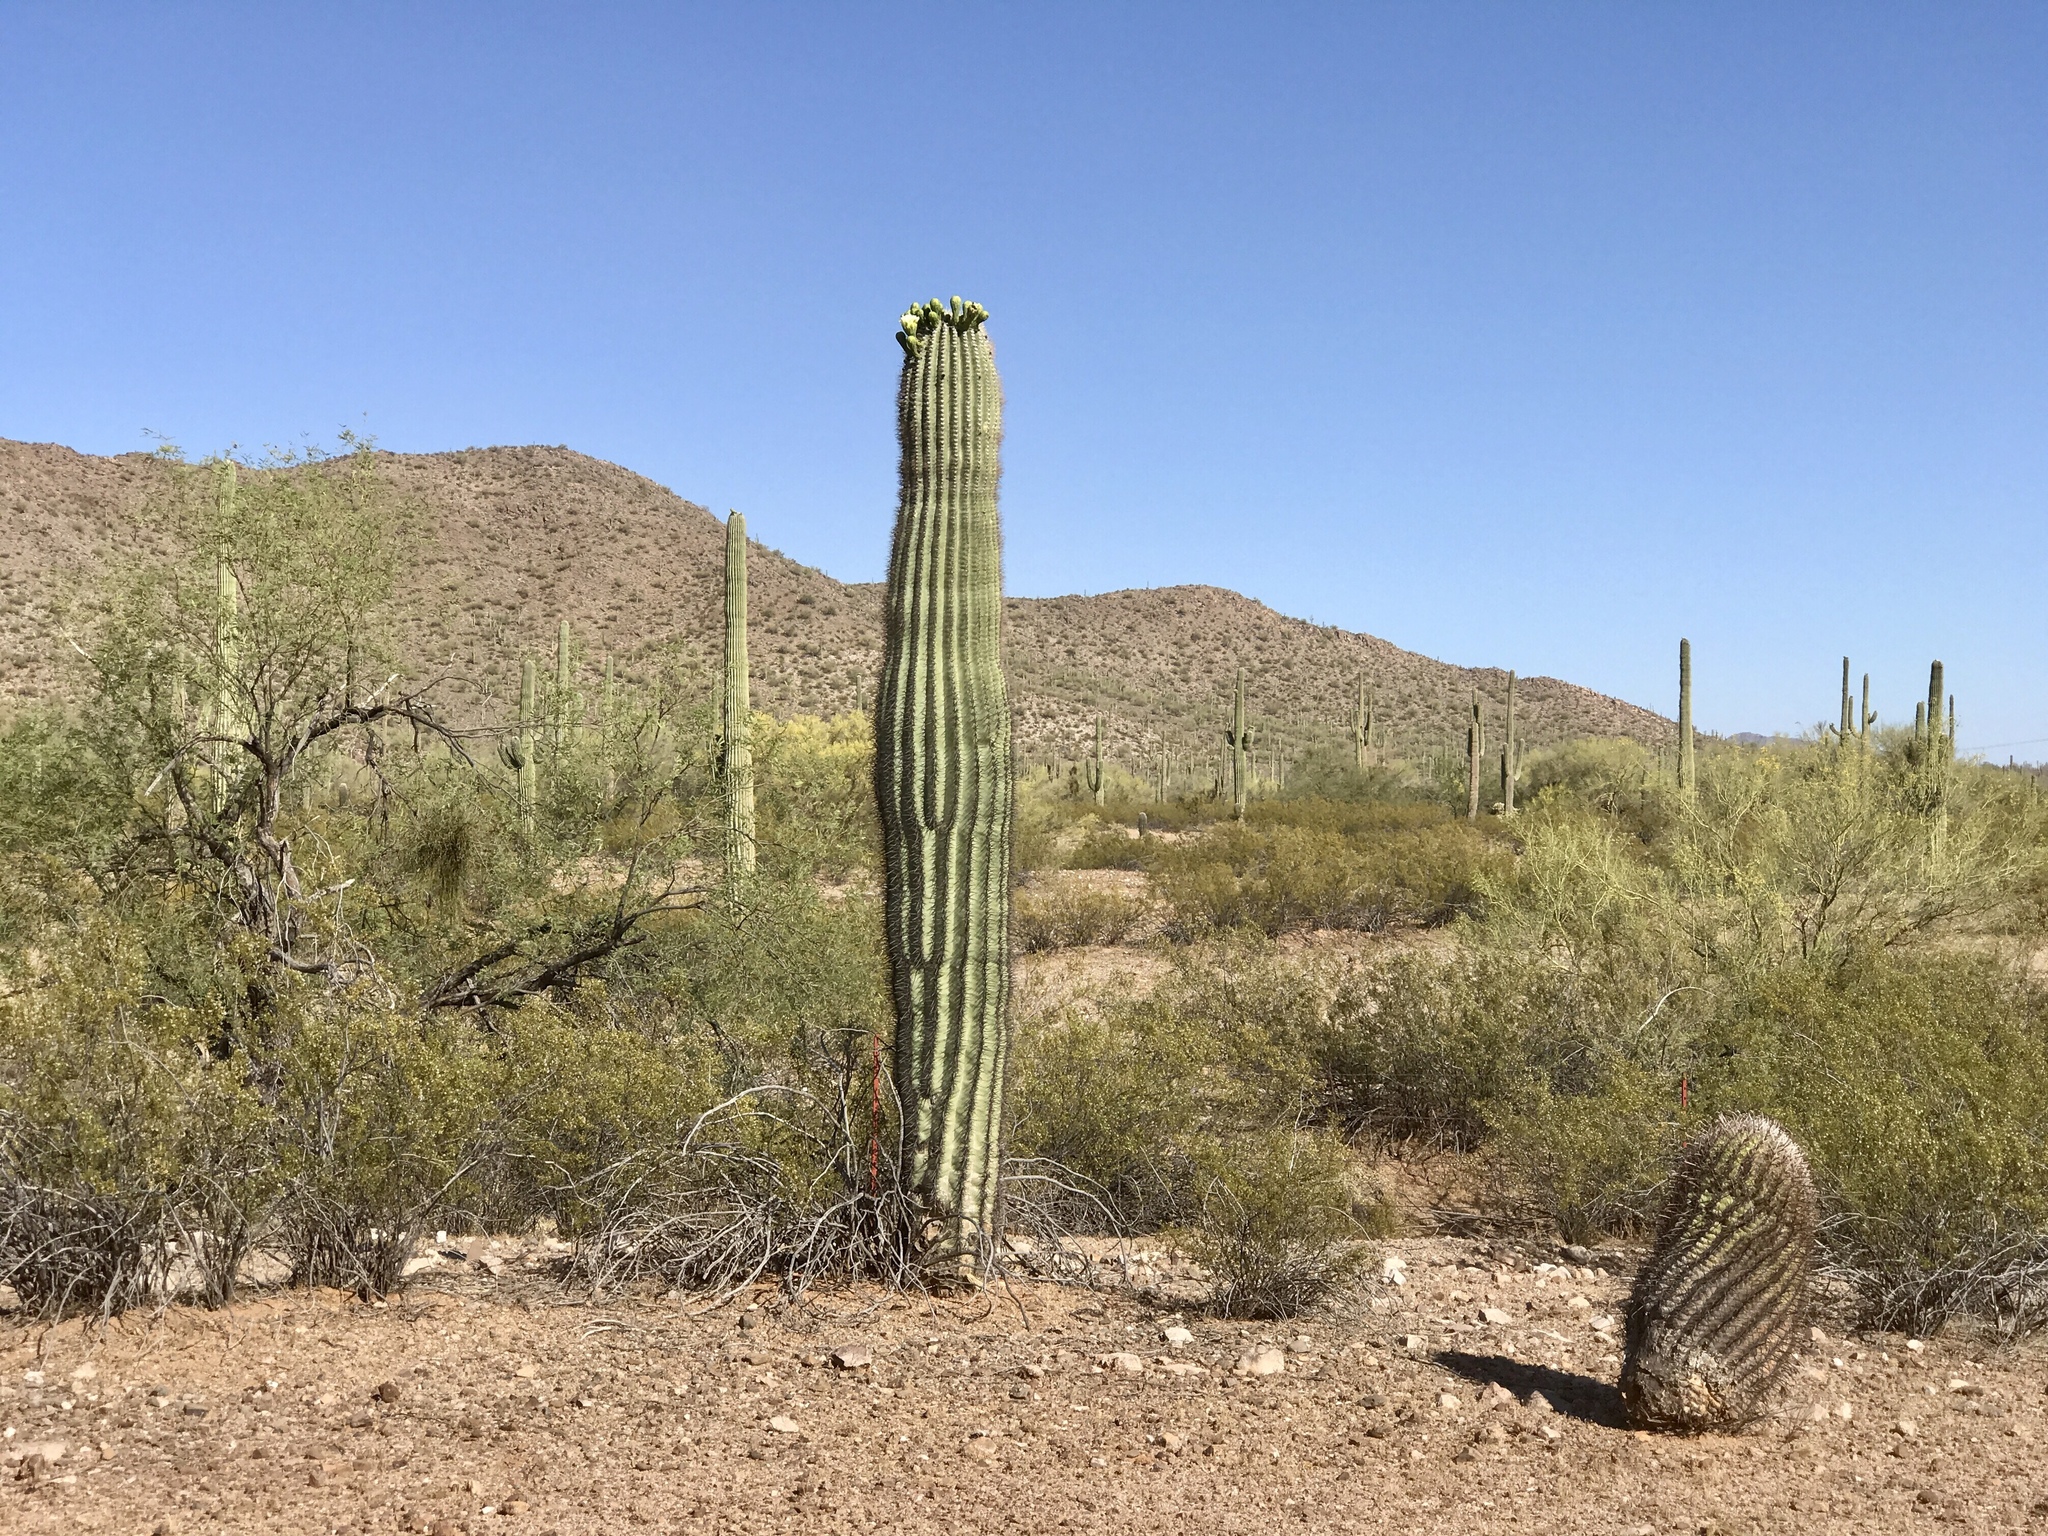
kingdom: Plantae
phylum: Tracheophyta
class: Magnoliopsida
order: Caryophyllales
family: Cactaceae
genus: Carnegiea
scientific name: Carnegiea gigantea
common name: Saguaro
